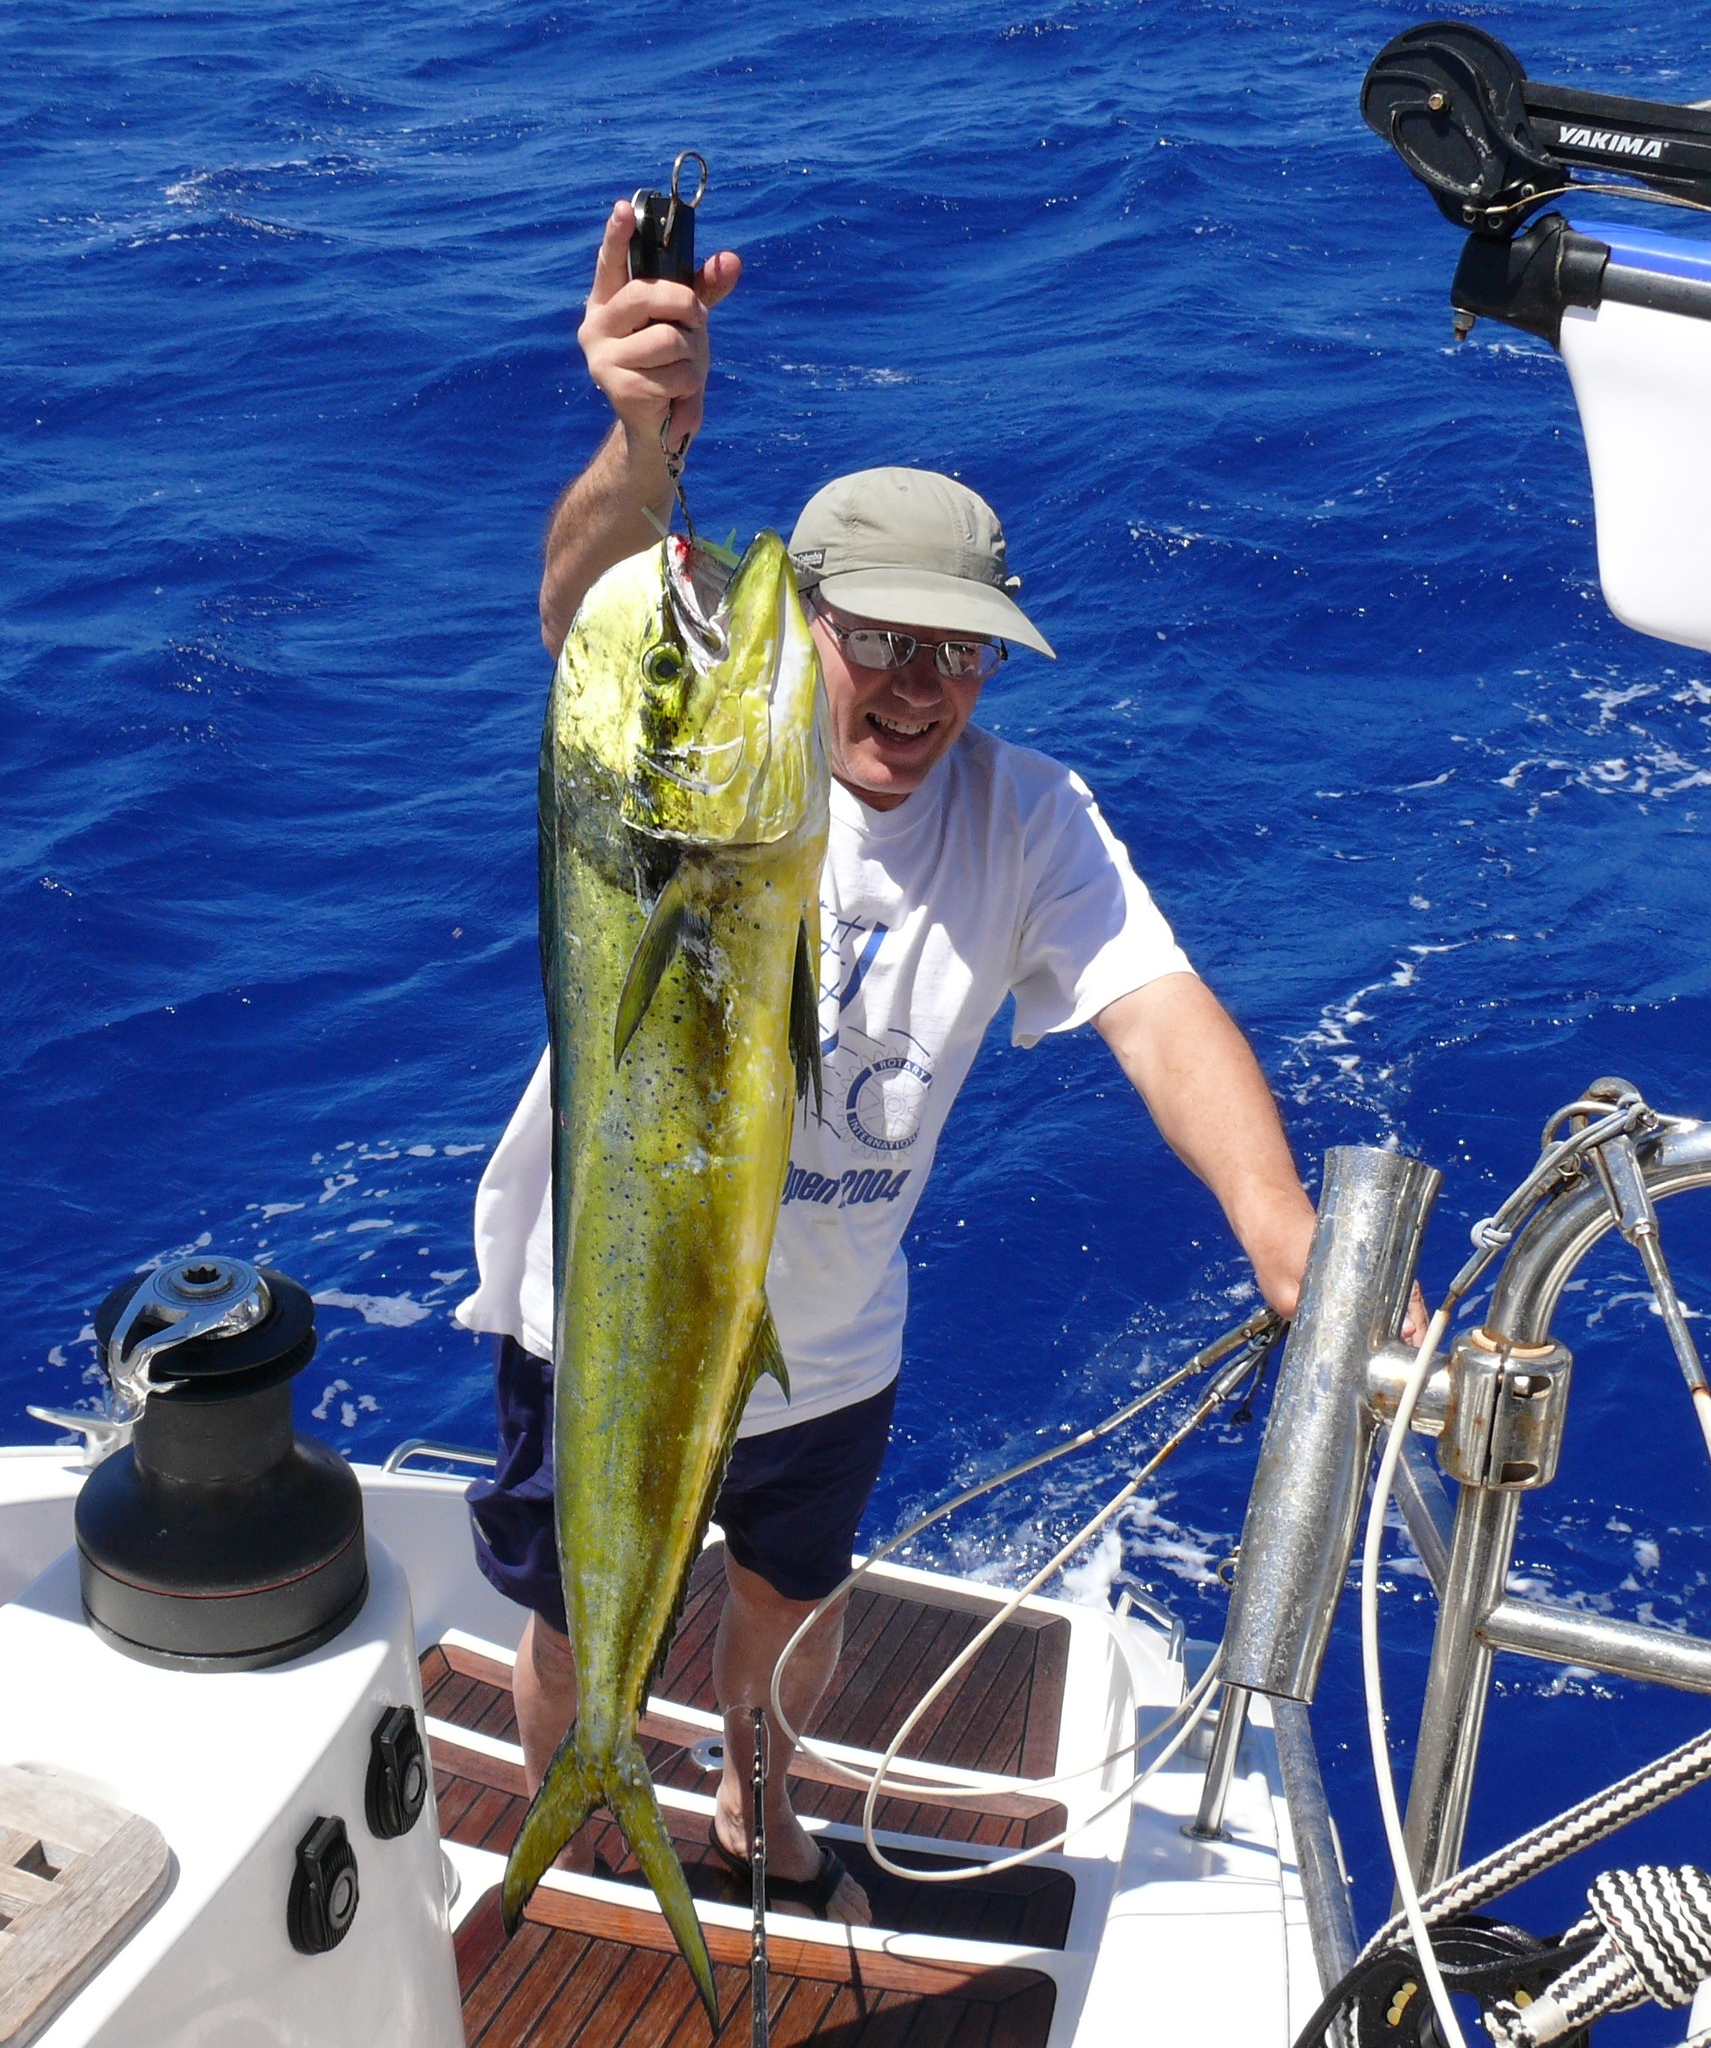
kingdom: Animalia
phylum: Chordata
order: Perciformes
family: Coryphaenidae
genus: Coryphaena
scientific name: Coryphaena hippurus
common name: Dolphin
